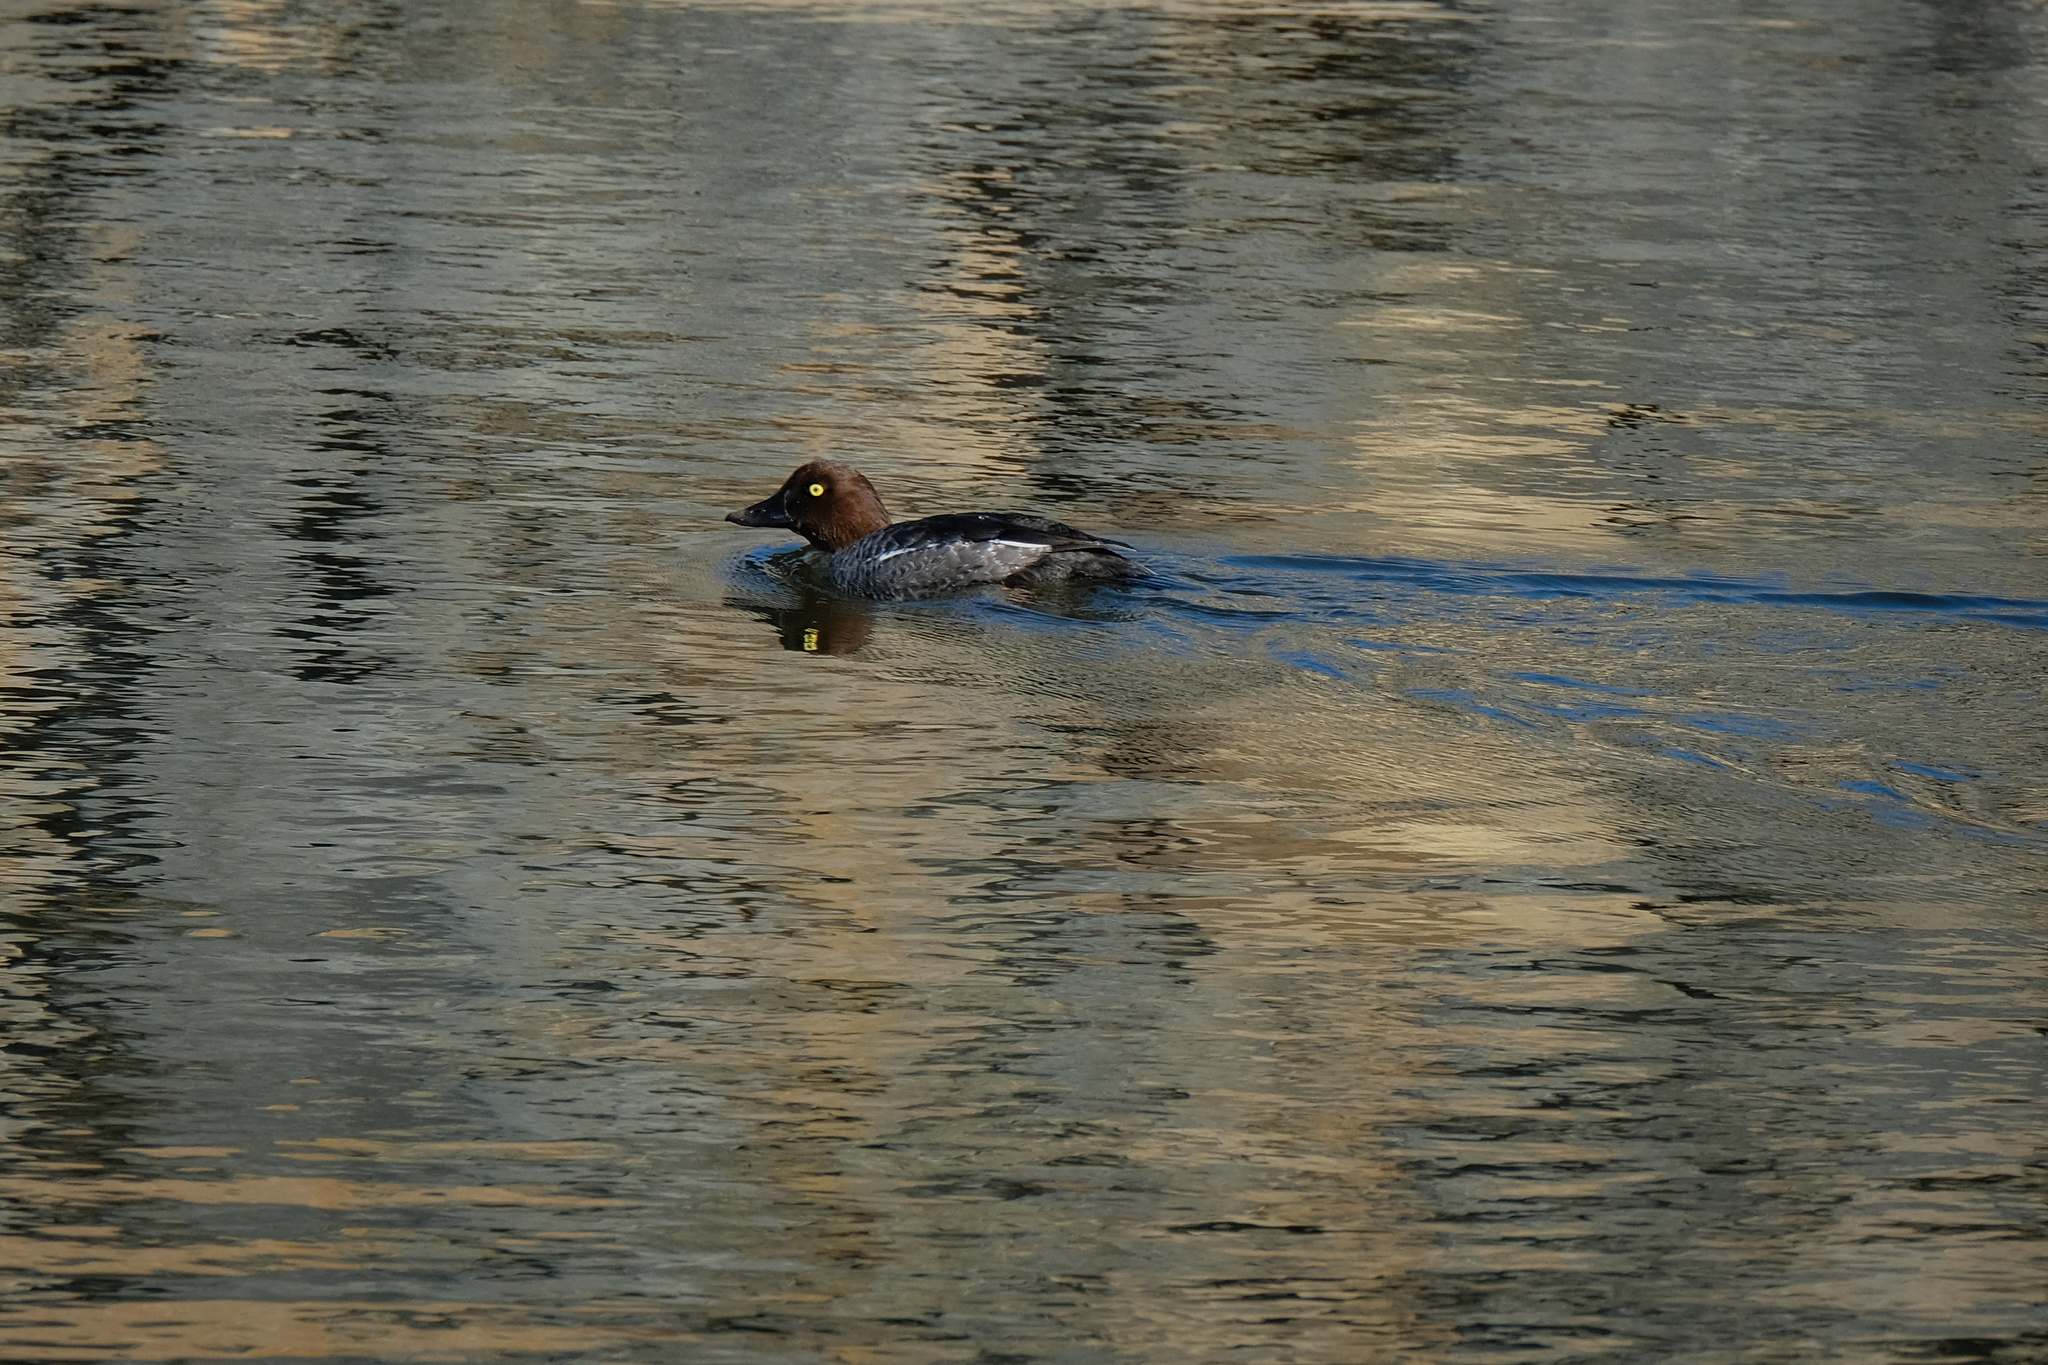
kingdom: Animalia
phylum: Chordata
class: Aves
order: Anseriformes
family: Anatidae
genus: Bucephala
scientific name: Bucephala clangula
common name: Common goldeneye
